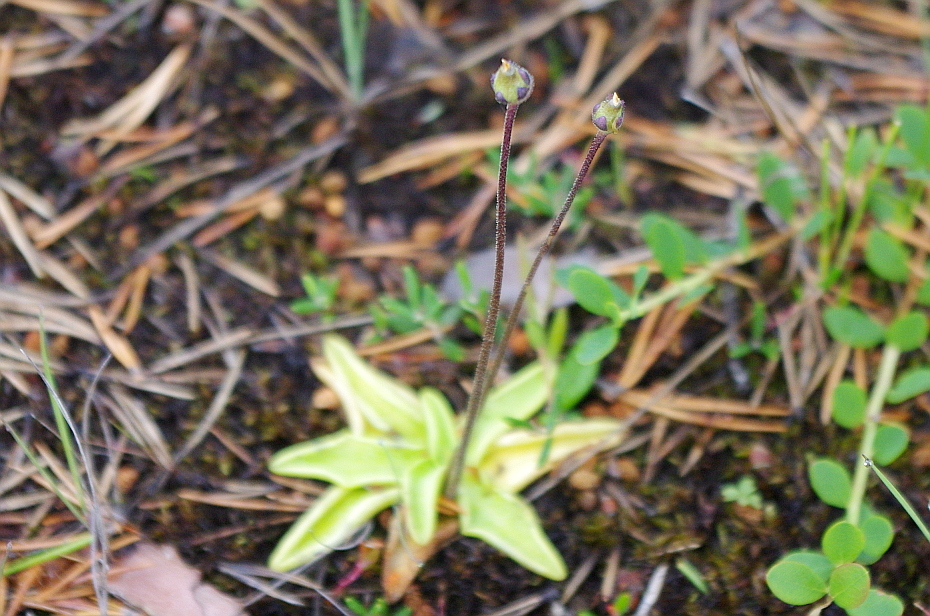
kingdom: Plantae
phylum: Tracheophyta
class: Magnoliopsida
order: Lamiales
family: Lentibulariaceae
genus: Pinguicula
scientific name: Pinguicula vulgaris
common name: Common butterwort
